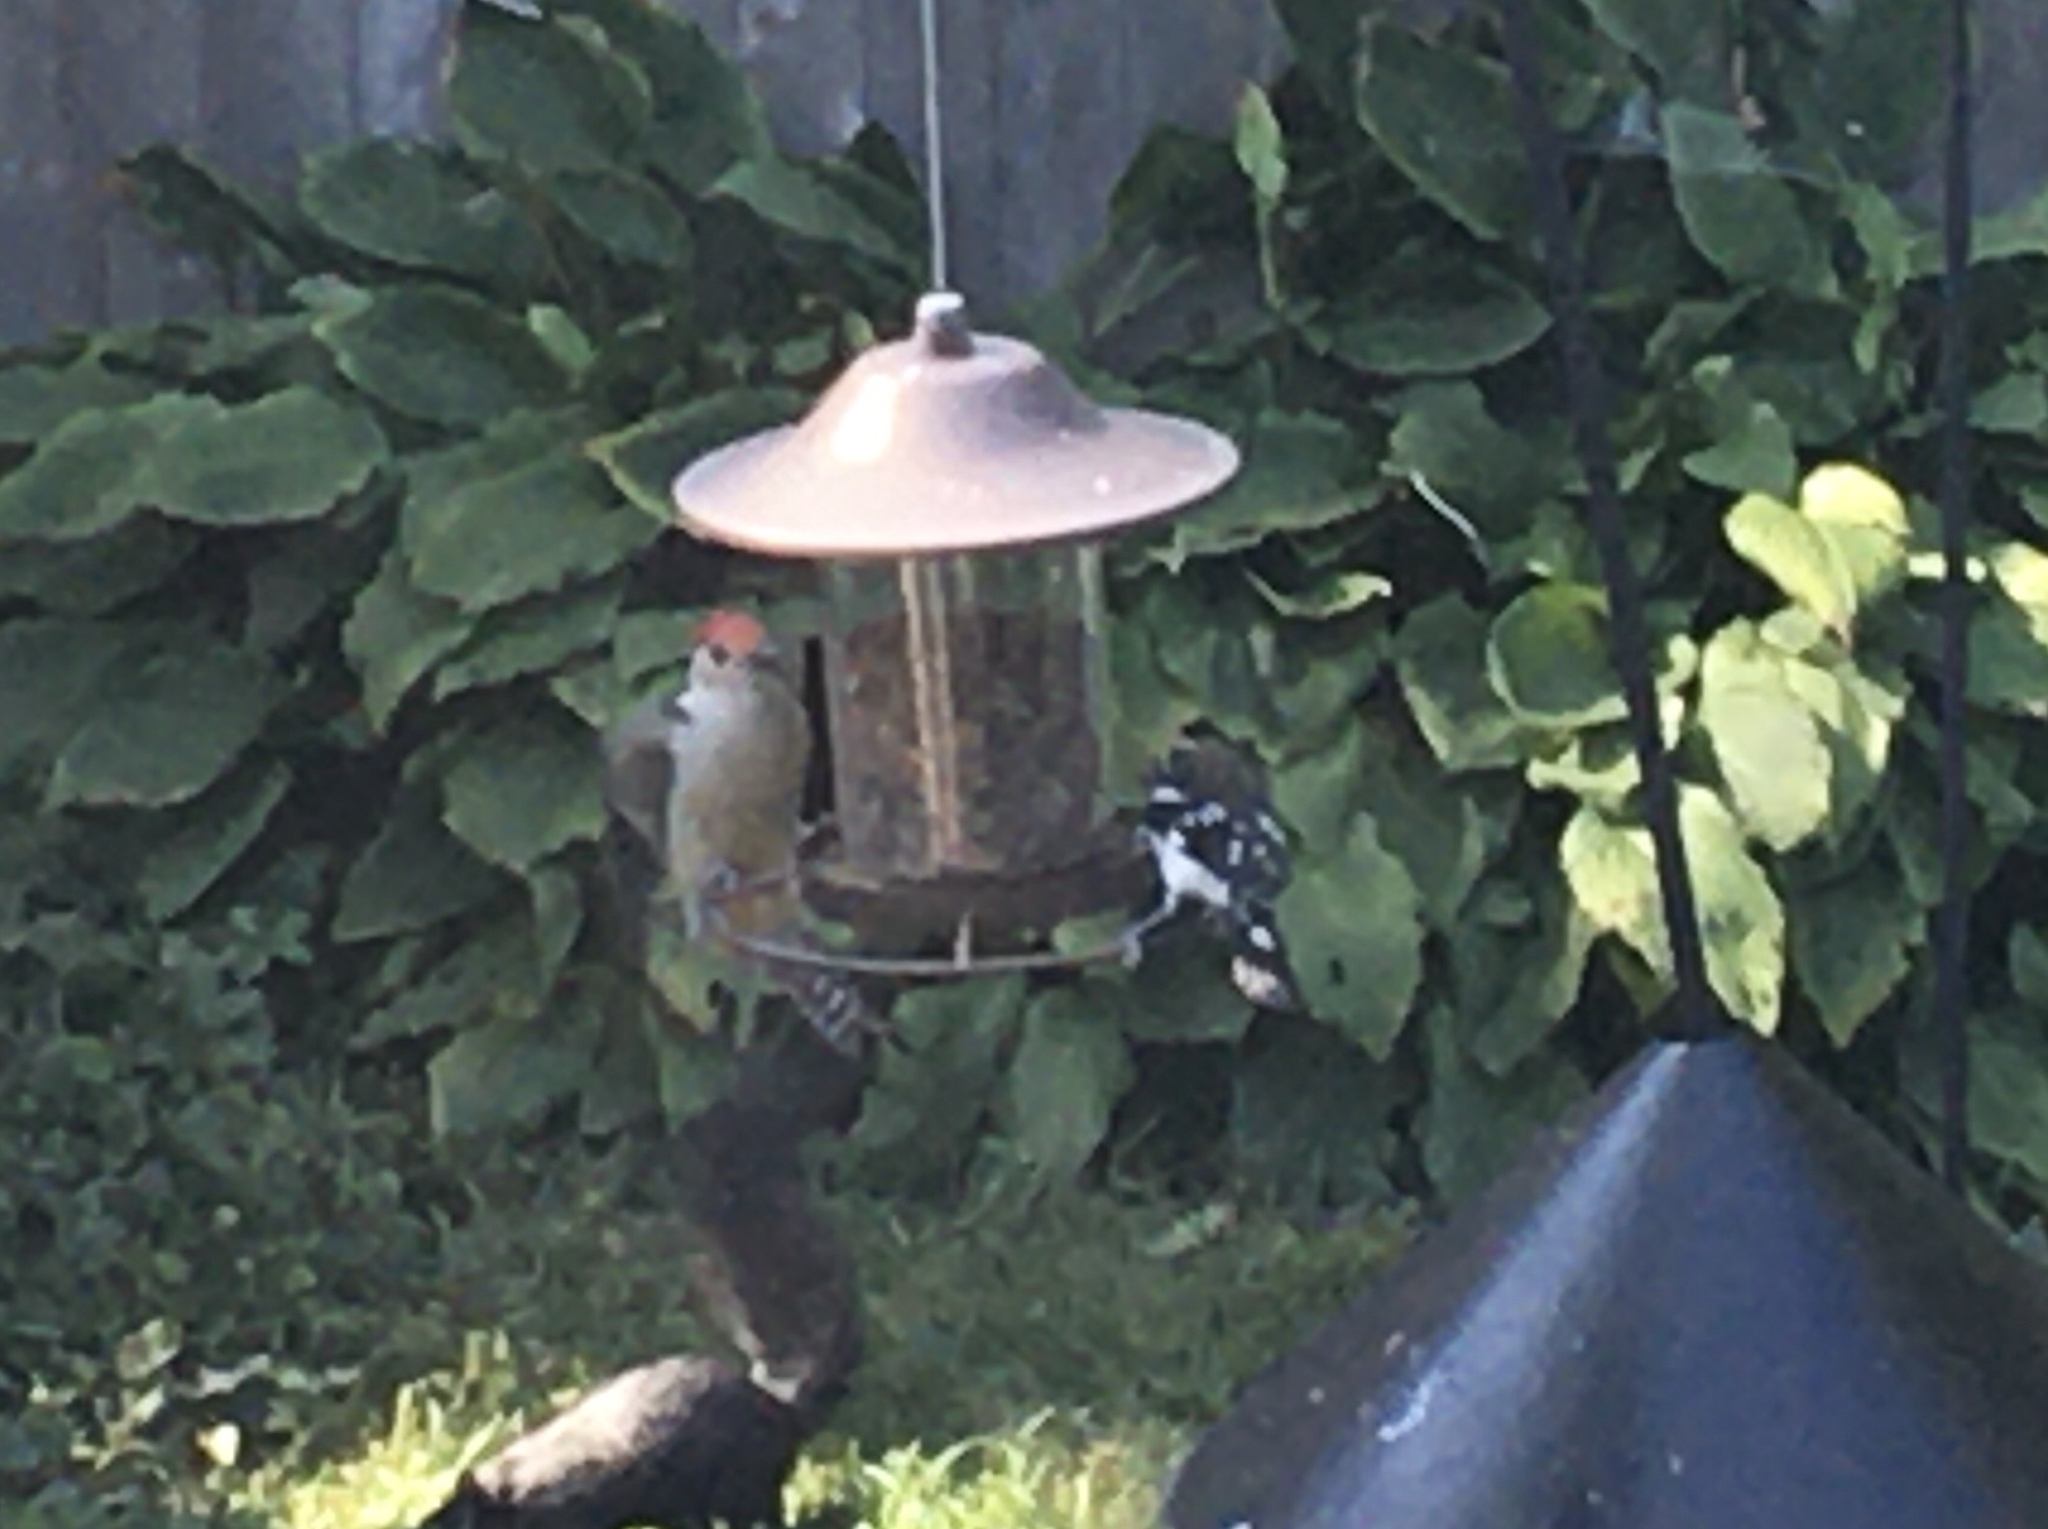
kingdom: Animalia
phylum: Chordata
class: Aves
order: Piciformes
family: Picidae
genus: Melanerpes
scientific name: Melanerpes carolinus
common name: Red-bellied woodpecker
